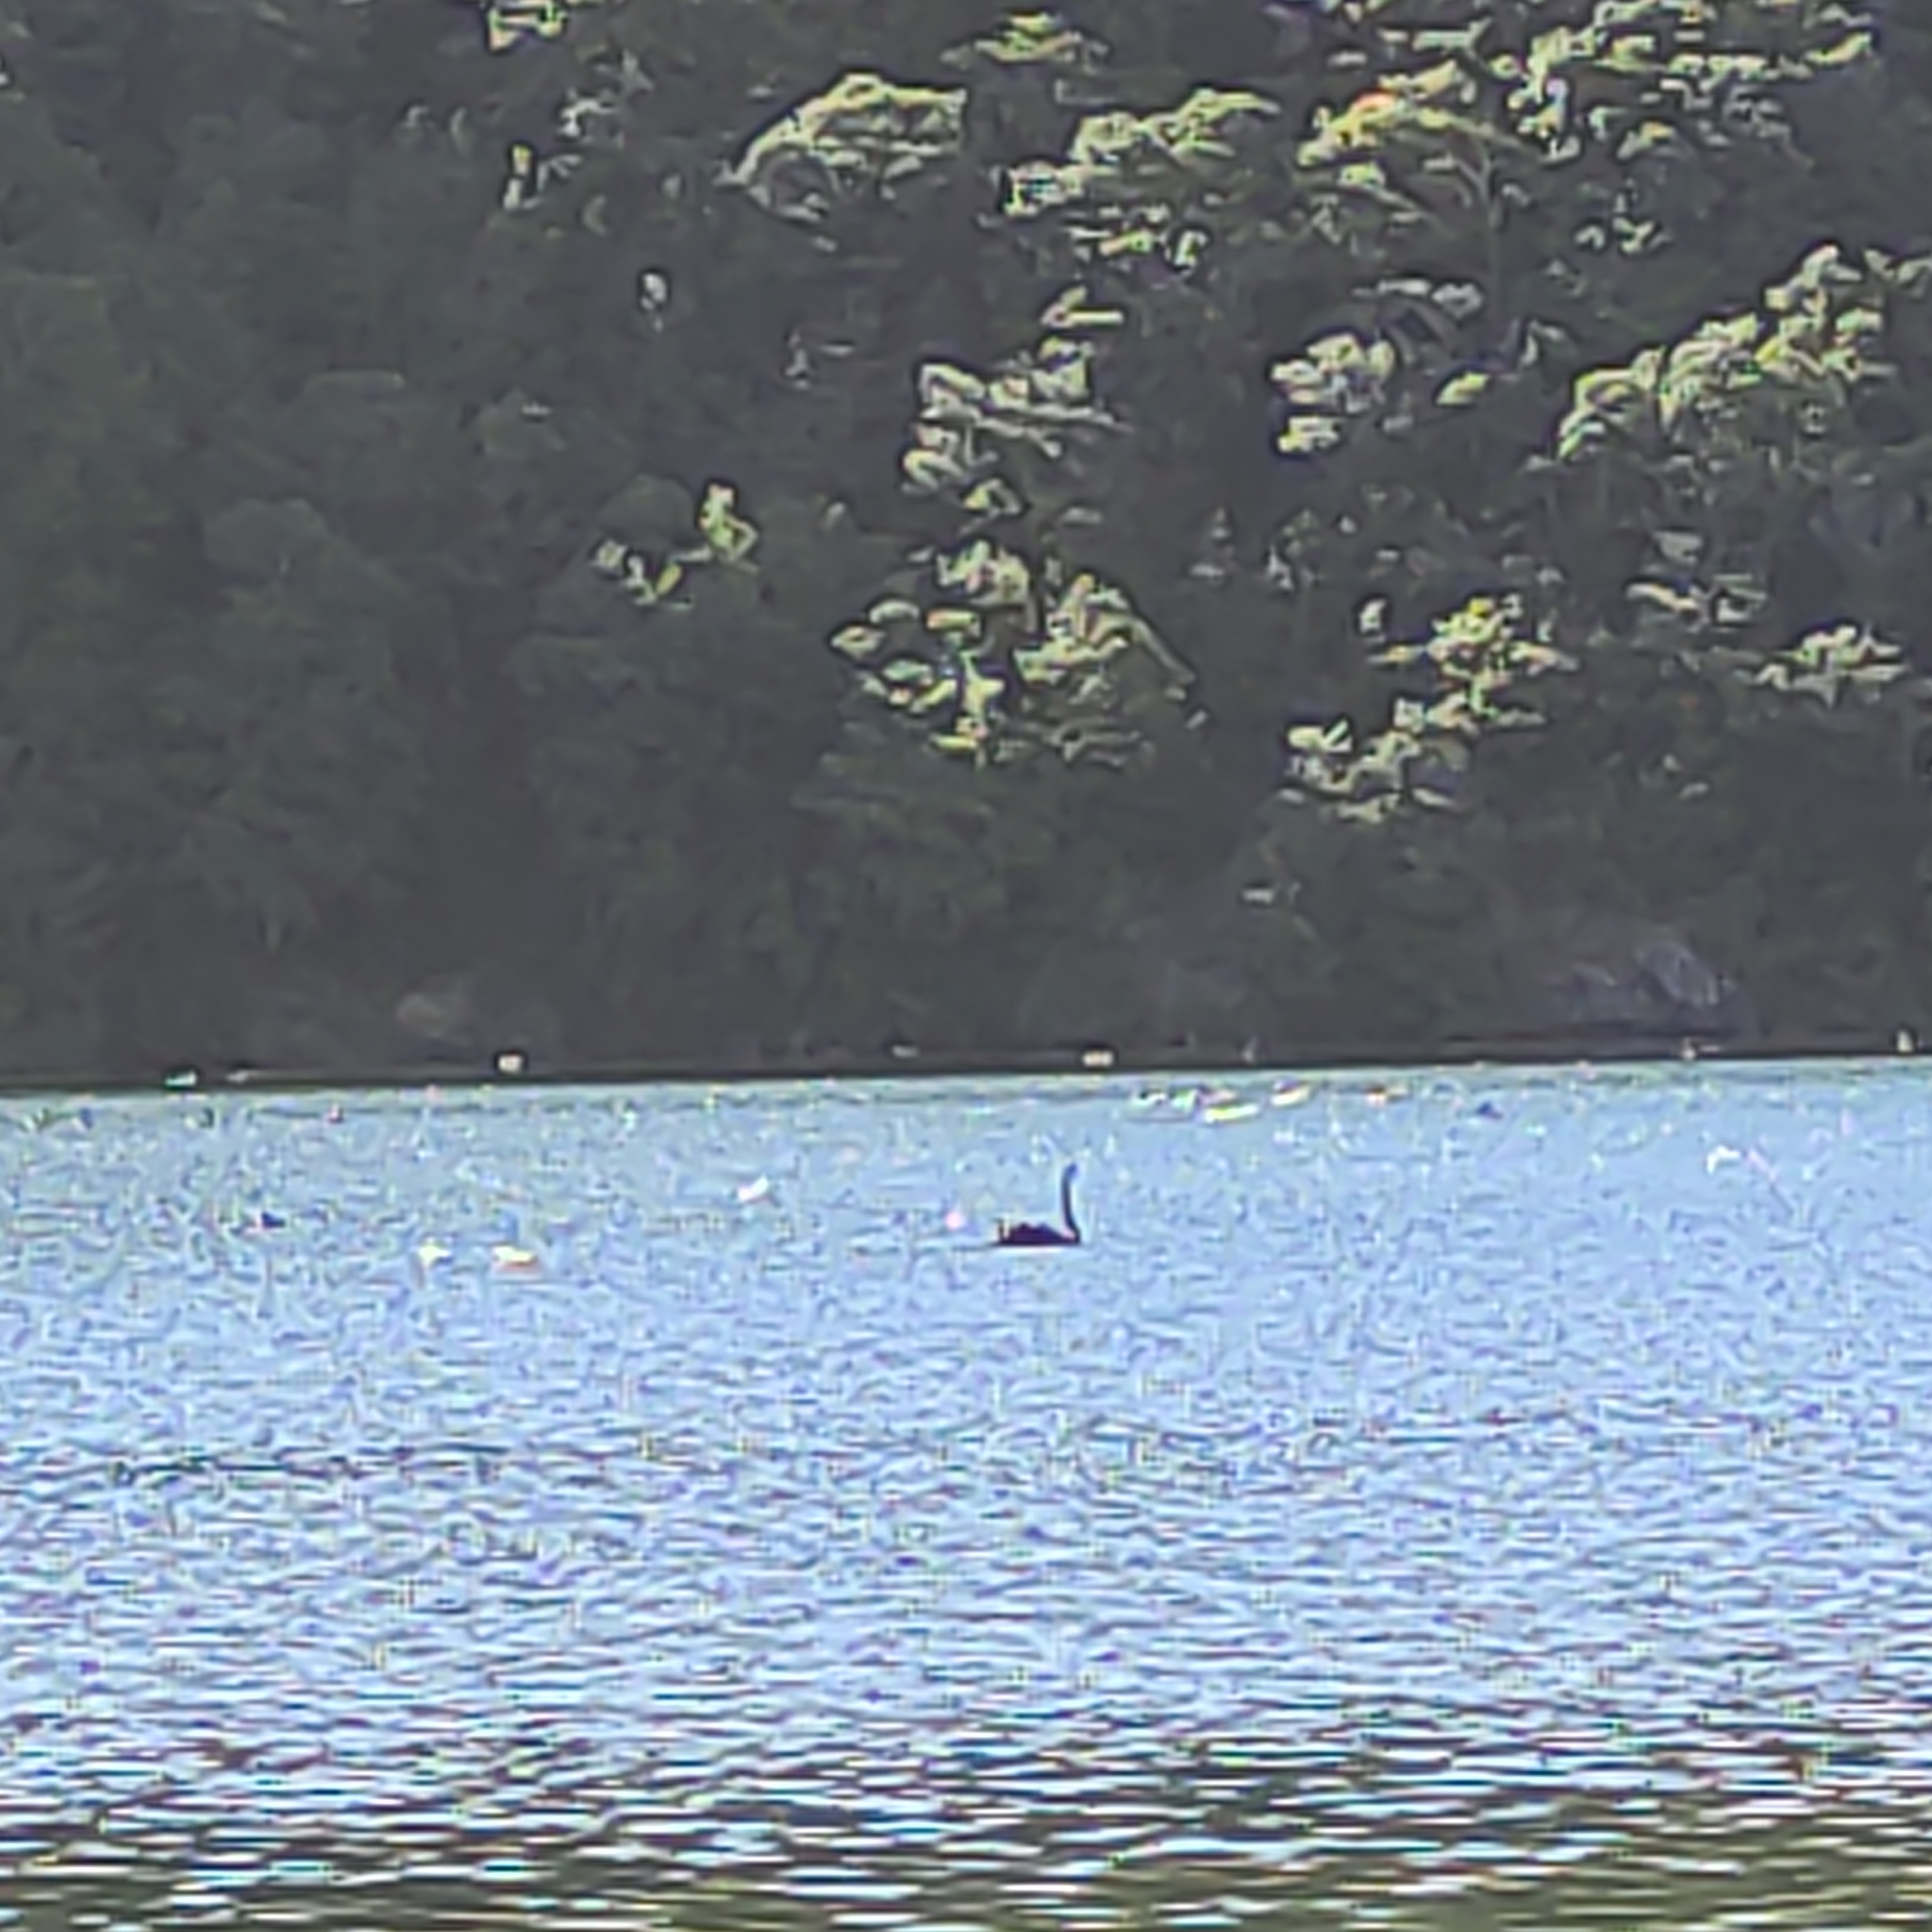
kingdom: Animalia
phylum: Chordata
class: Aves
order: Anseriformes
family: Anatidae
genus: Cygnus
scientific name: Cygnus atratus
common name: Black swan
